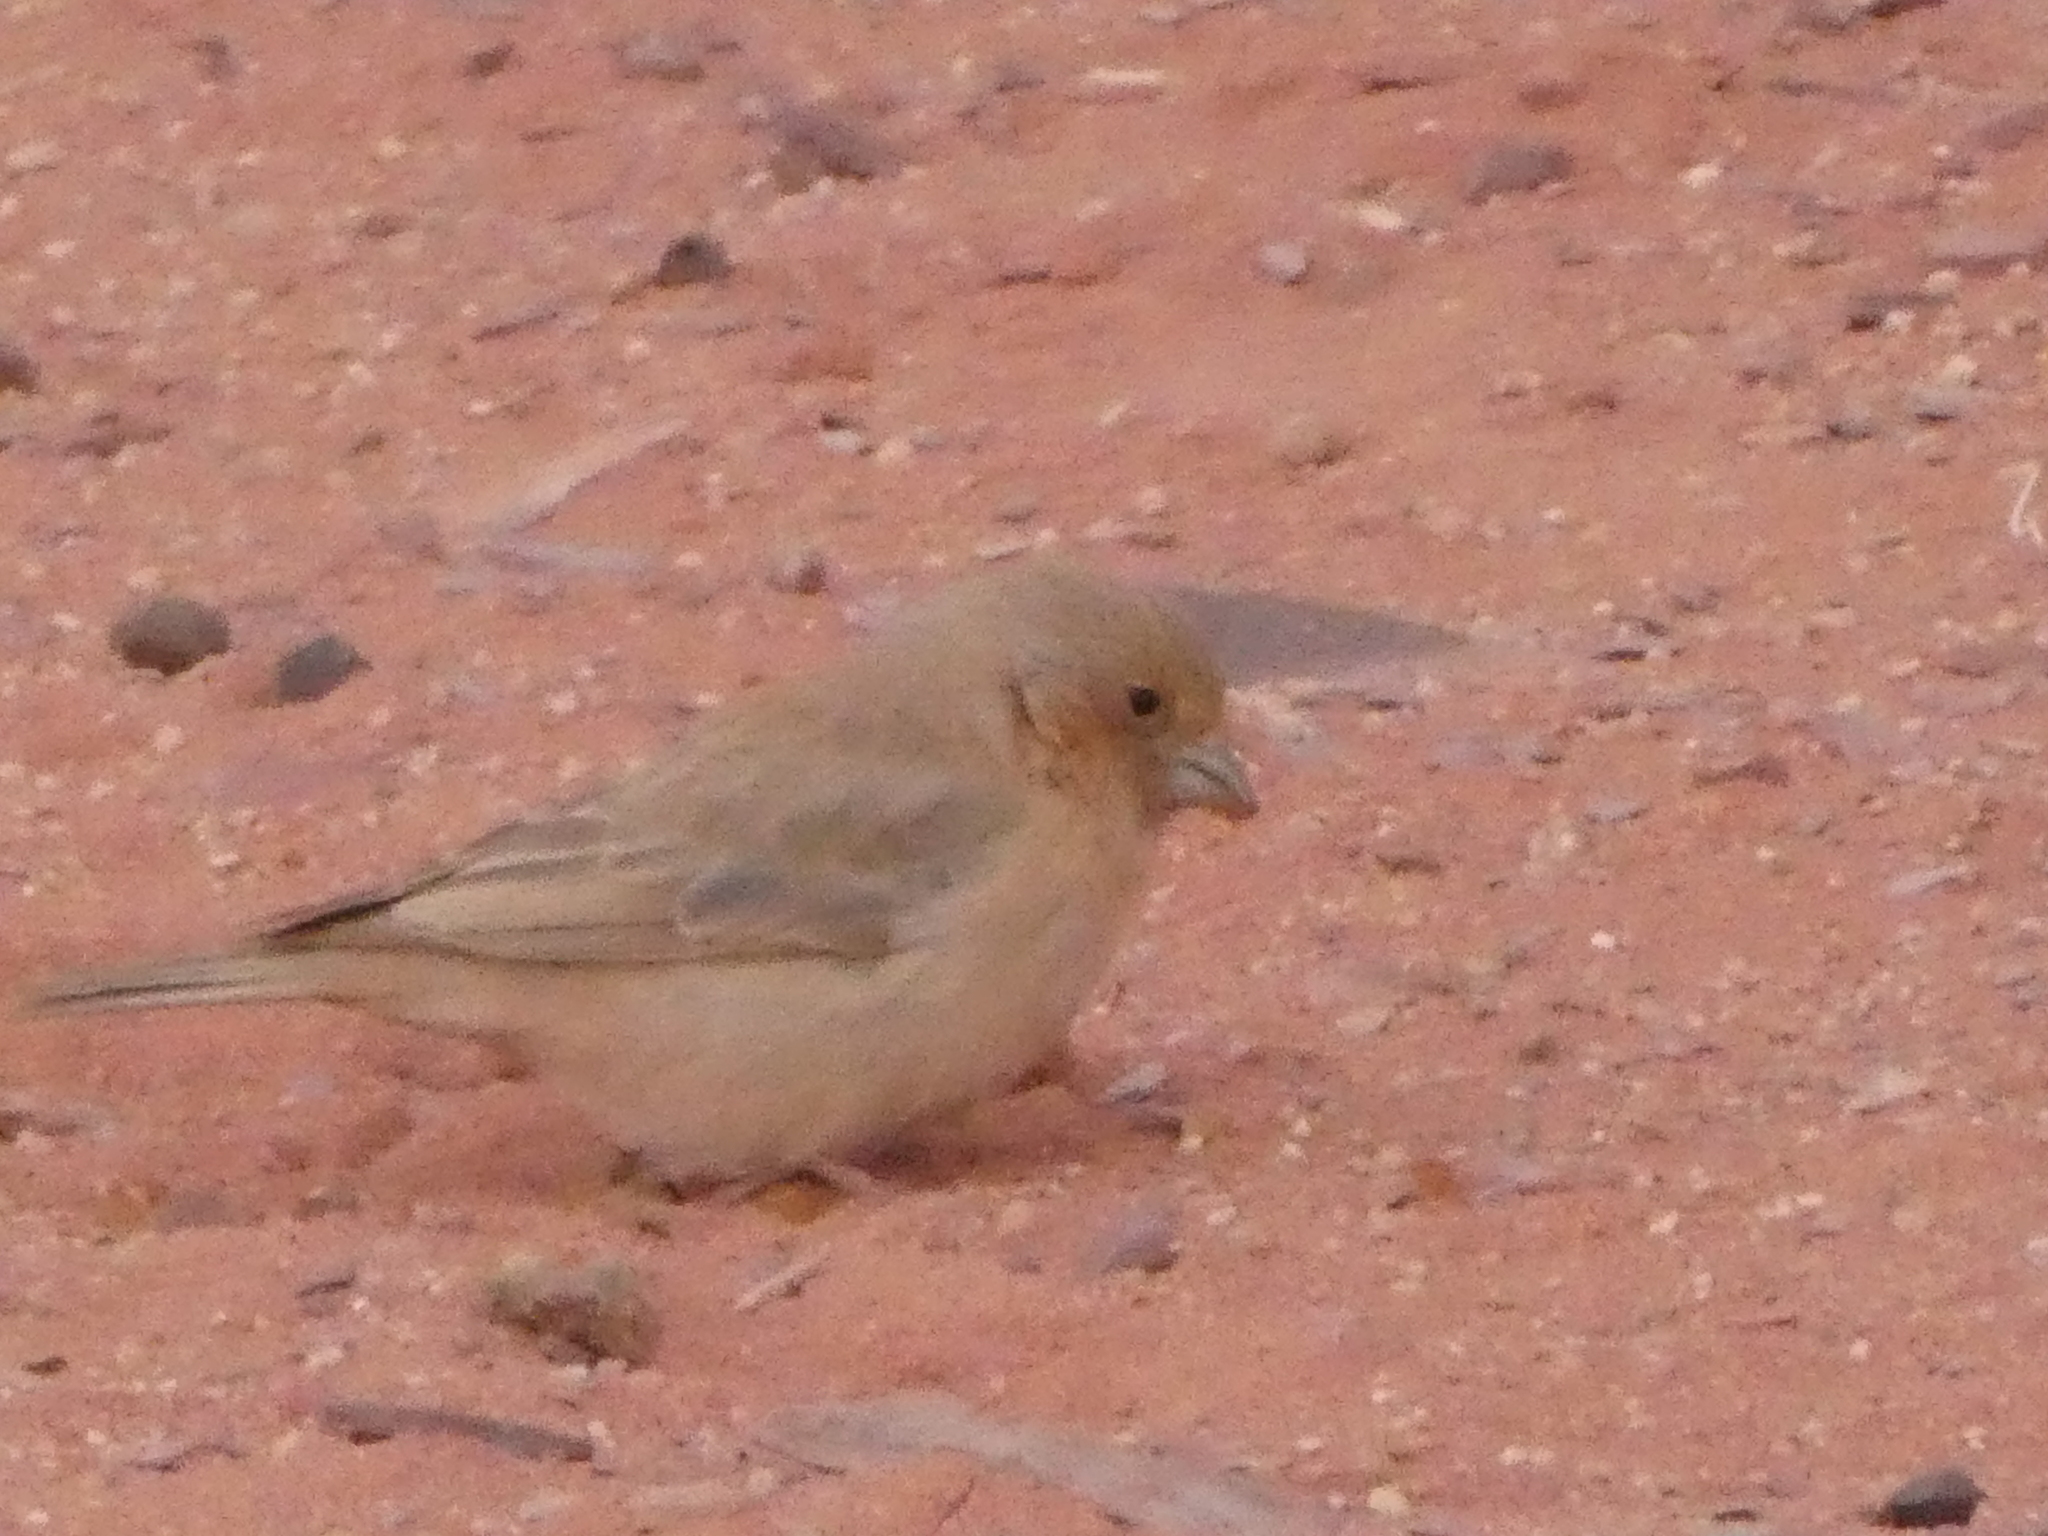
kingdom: Animalia
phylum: Chordata
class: Aves
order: Passeriformes
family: Fringillidae
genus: Carpodacus
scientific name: Carpodacus synoicus
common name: Sinai rosefinch
